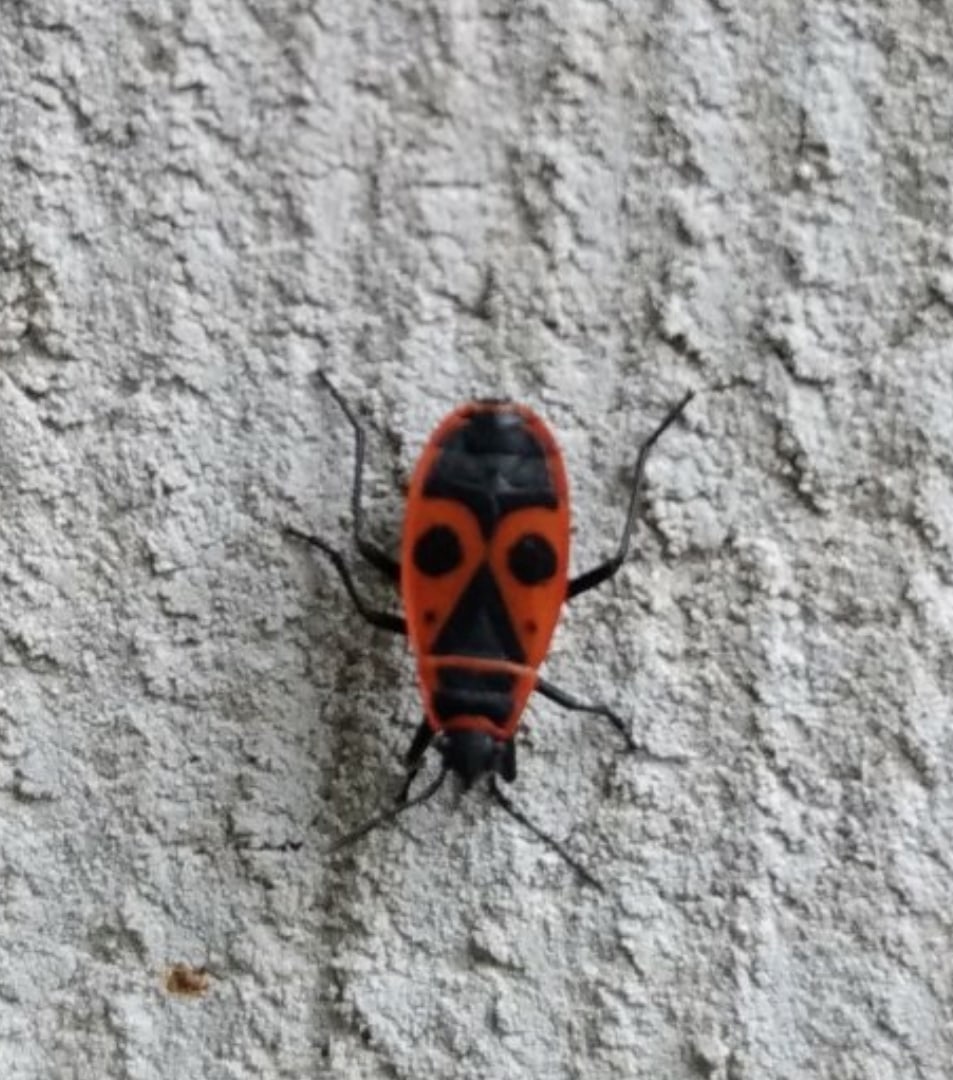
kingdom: Animalia
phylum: Arthropoda
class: Insecta
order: Hemiptera
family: Pyrrhocoridae
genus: Pyrrhocoris
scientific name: Pyrrhocoris apterus
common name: Firebug
